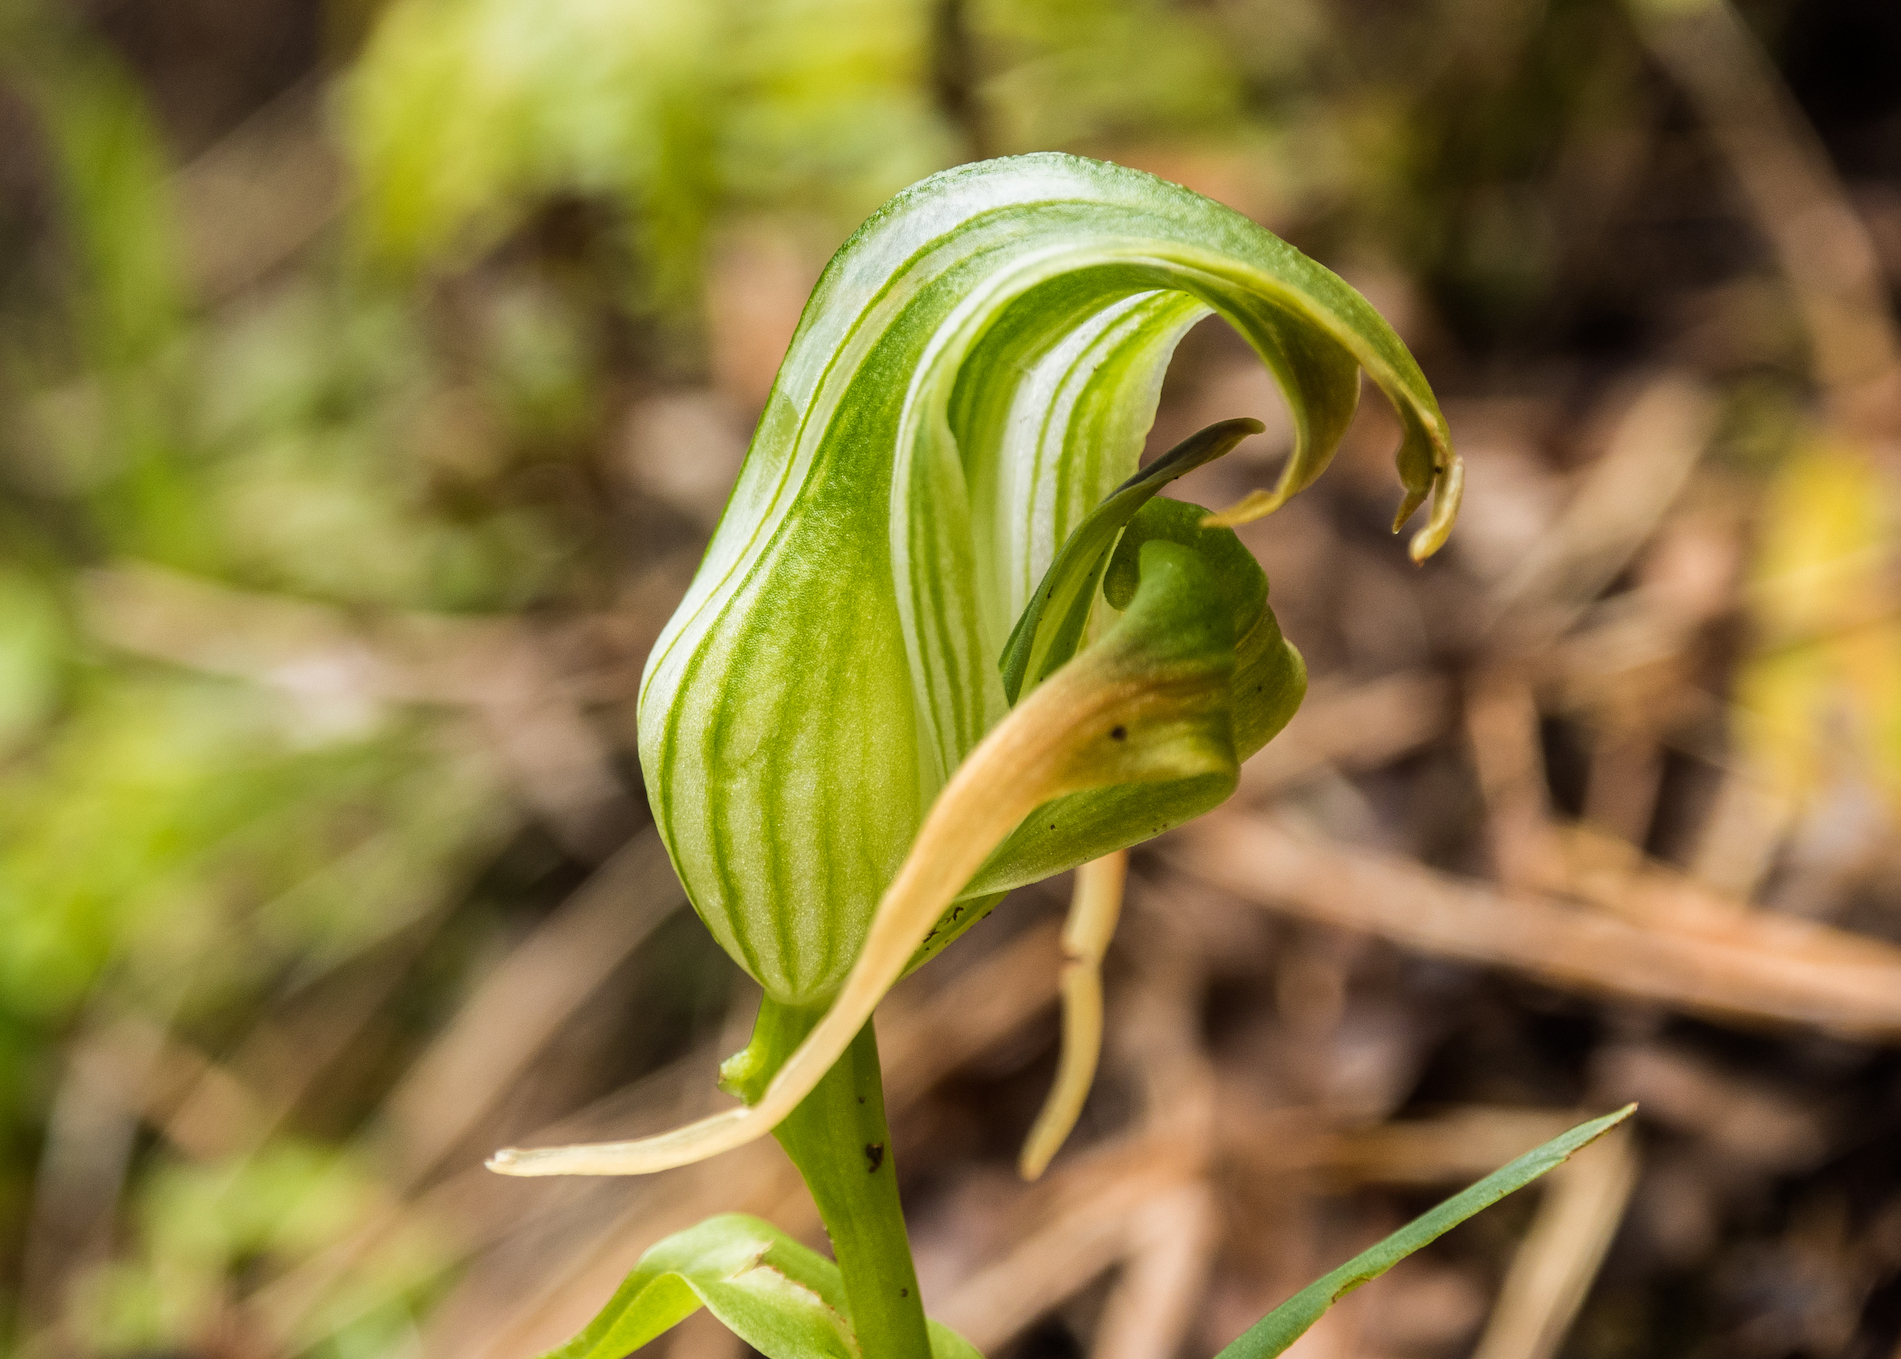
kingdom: Plantae
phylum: Tracheophyta
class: Liliopsida
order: Asparagales
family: Orchidaceae
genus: Pterostylis
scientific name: Pterostylis patens
